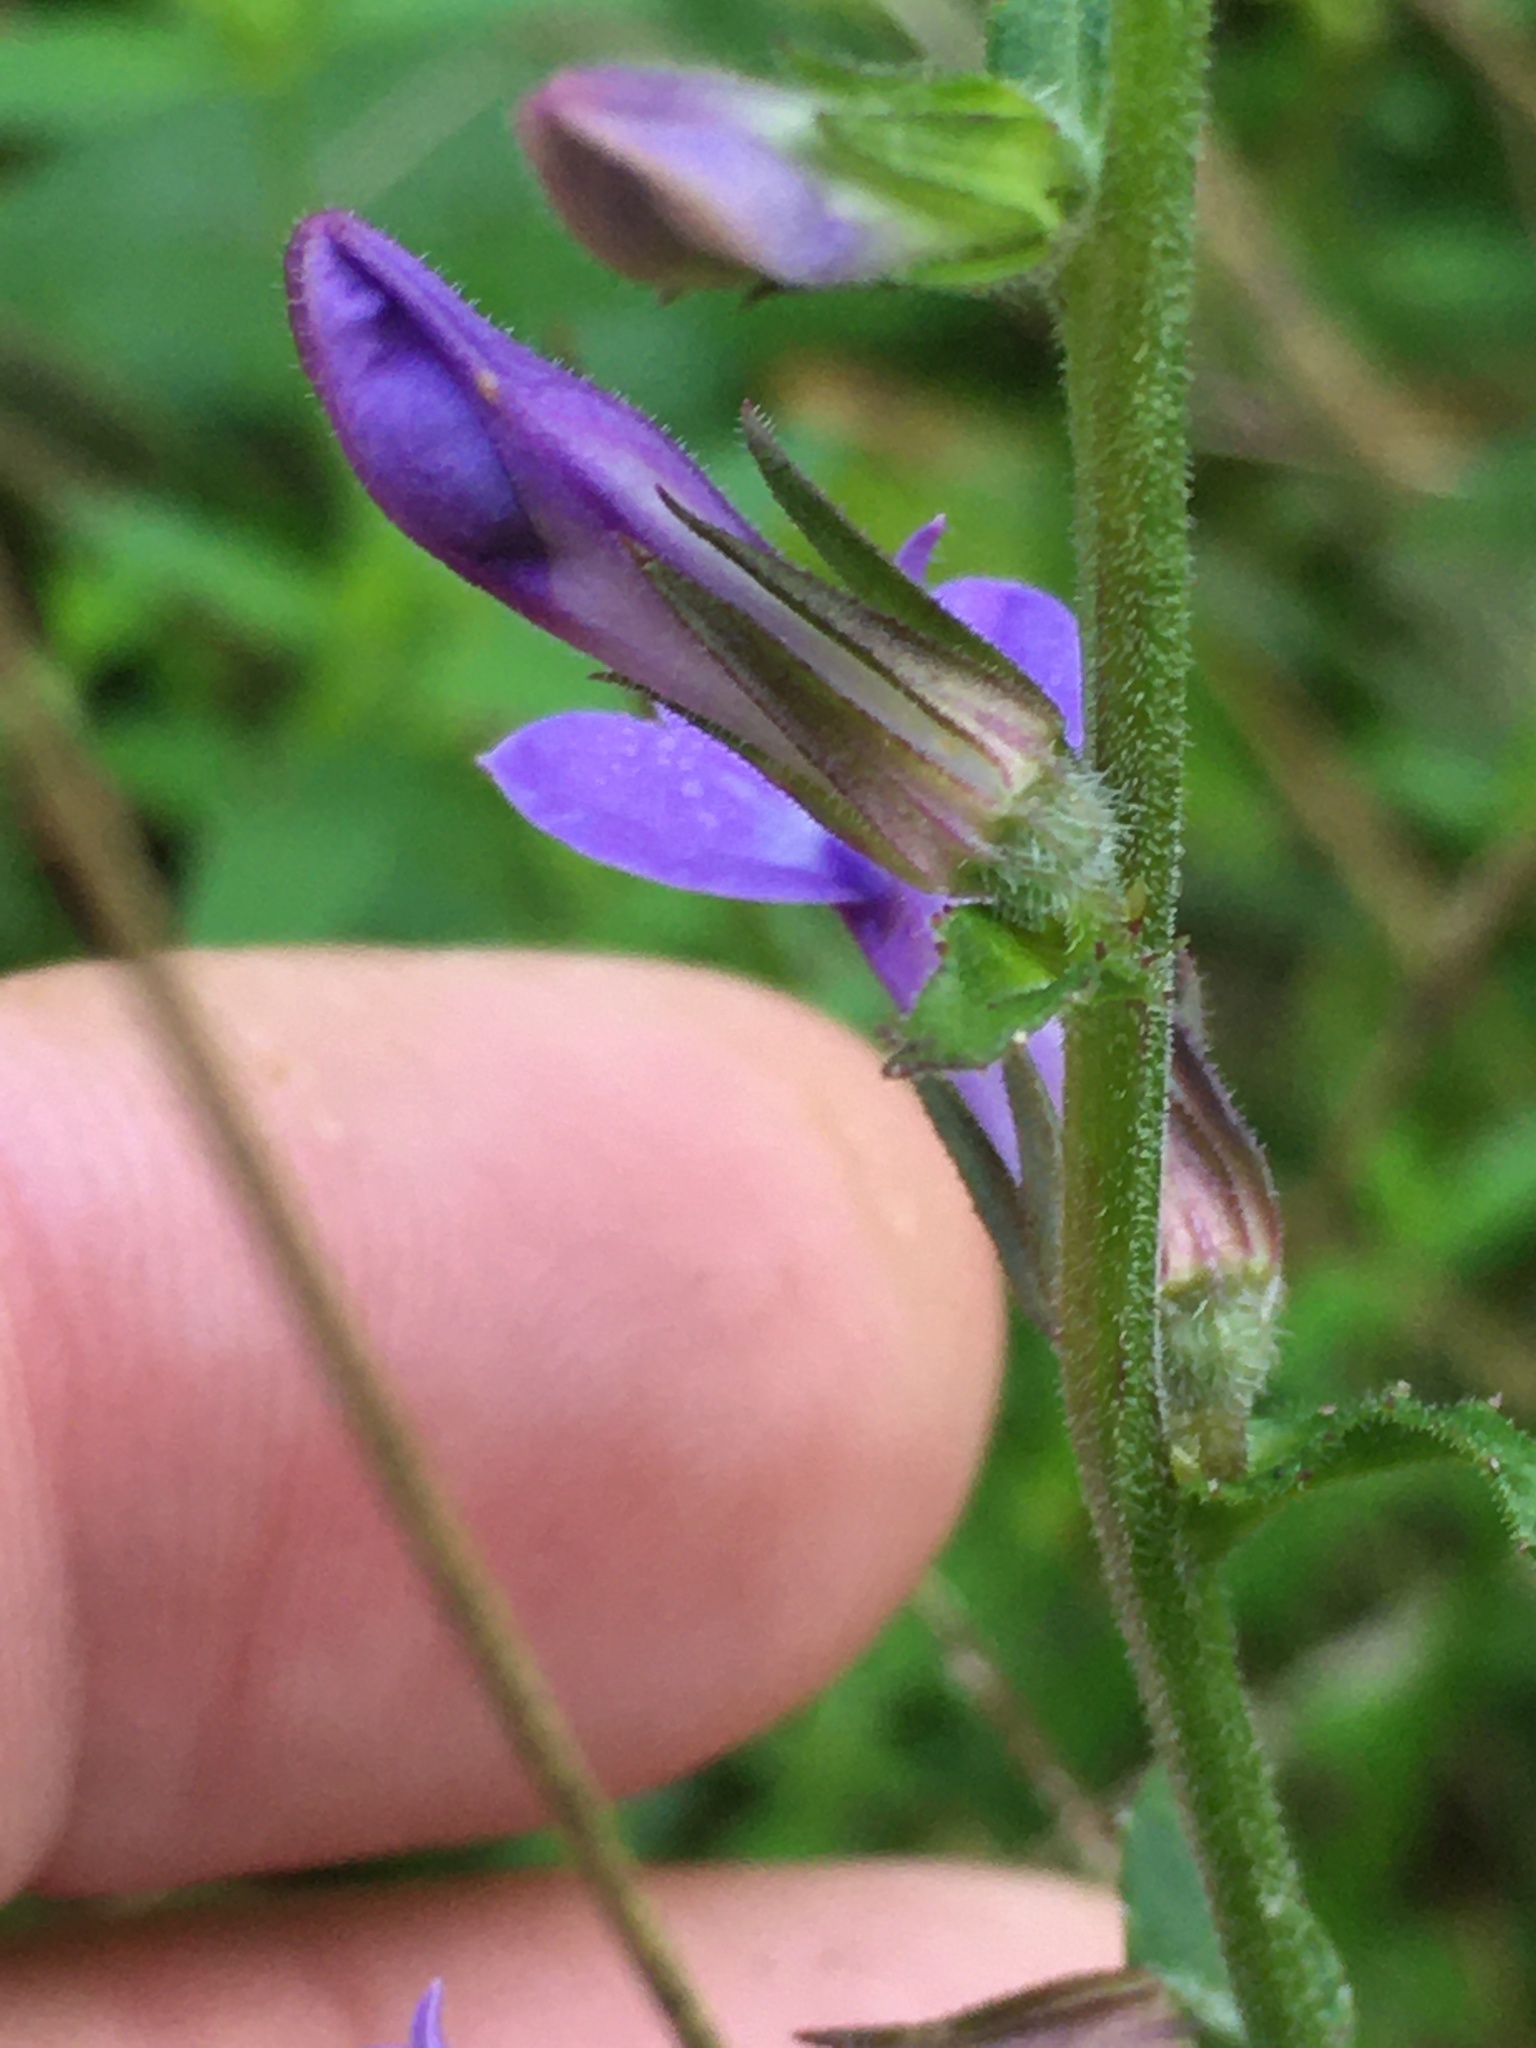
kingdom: Plantae
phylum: Tracheophyta
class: Magnoliopsida
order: Asterales
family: Campanulaceae
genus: Lobelia
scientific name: Lobelia puberula
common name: Purple dewdrop
